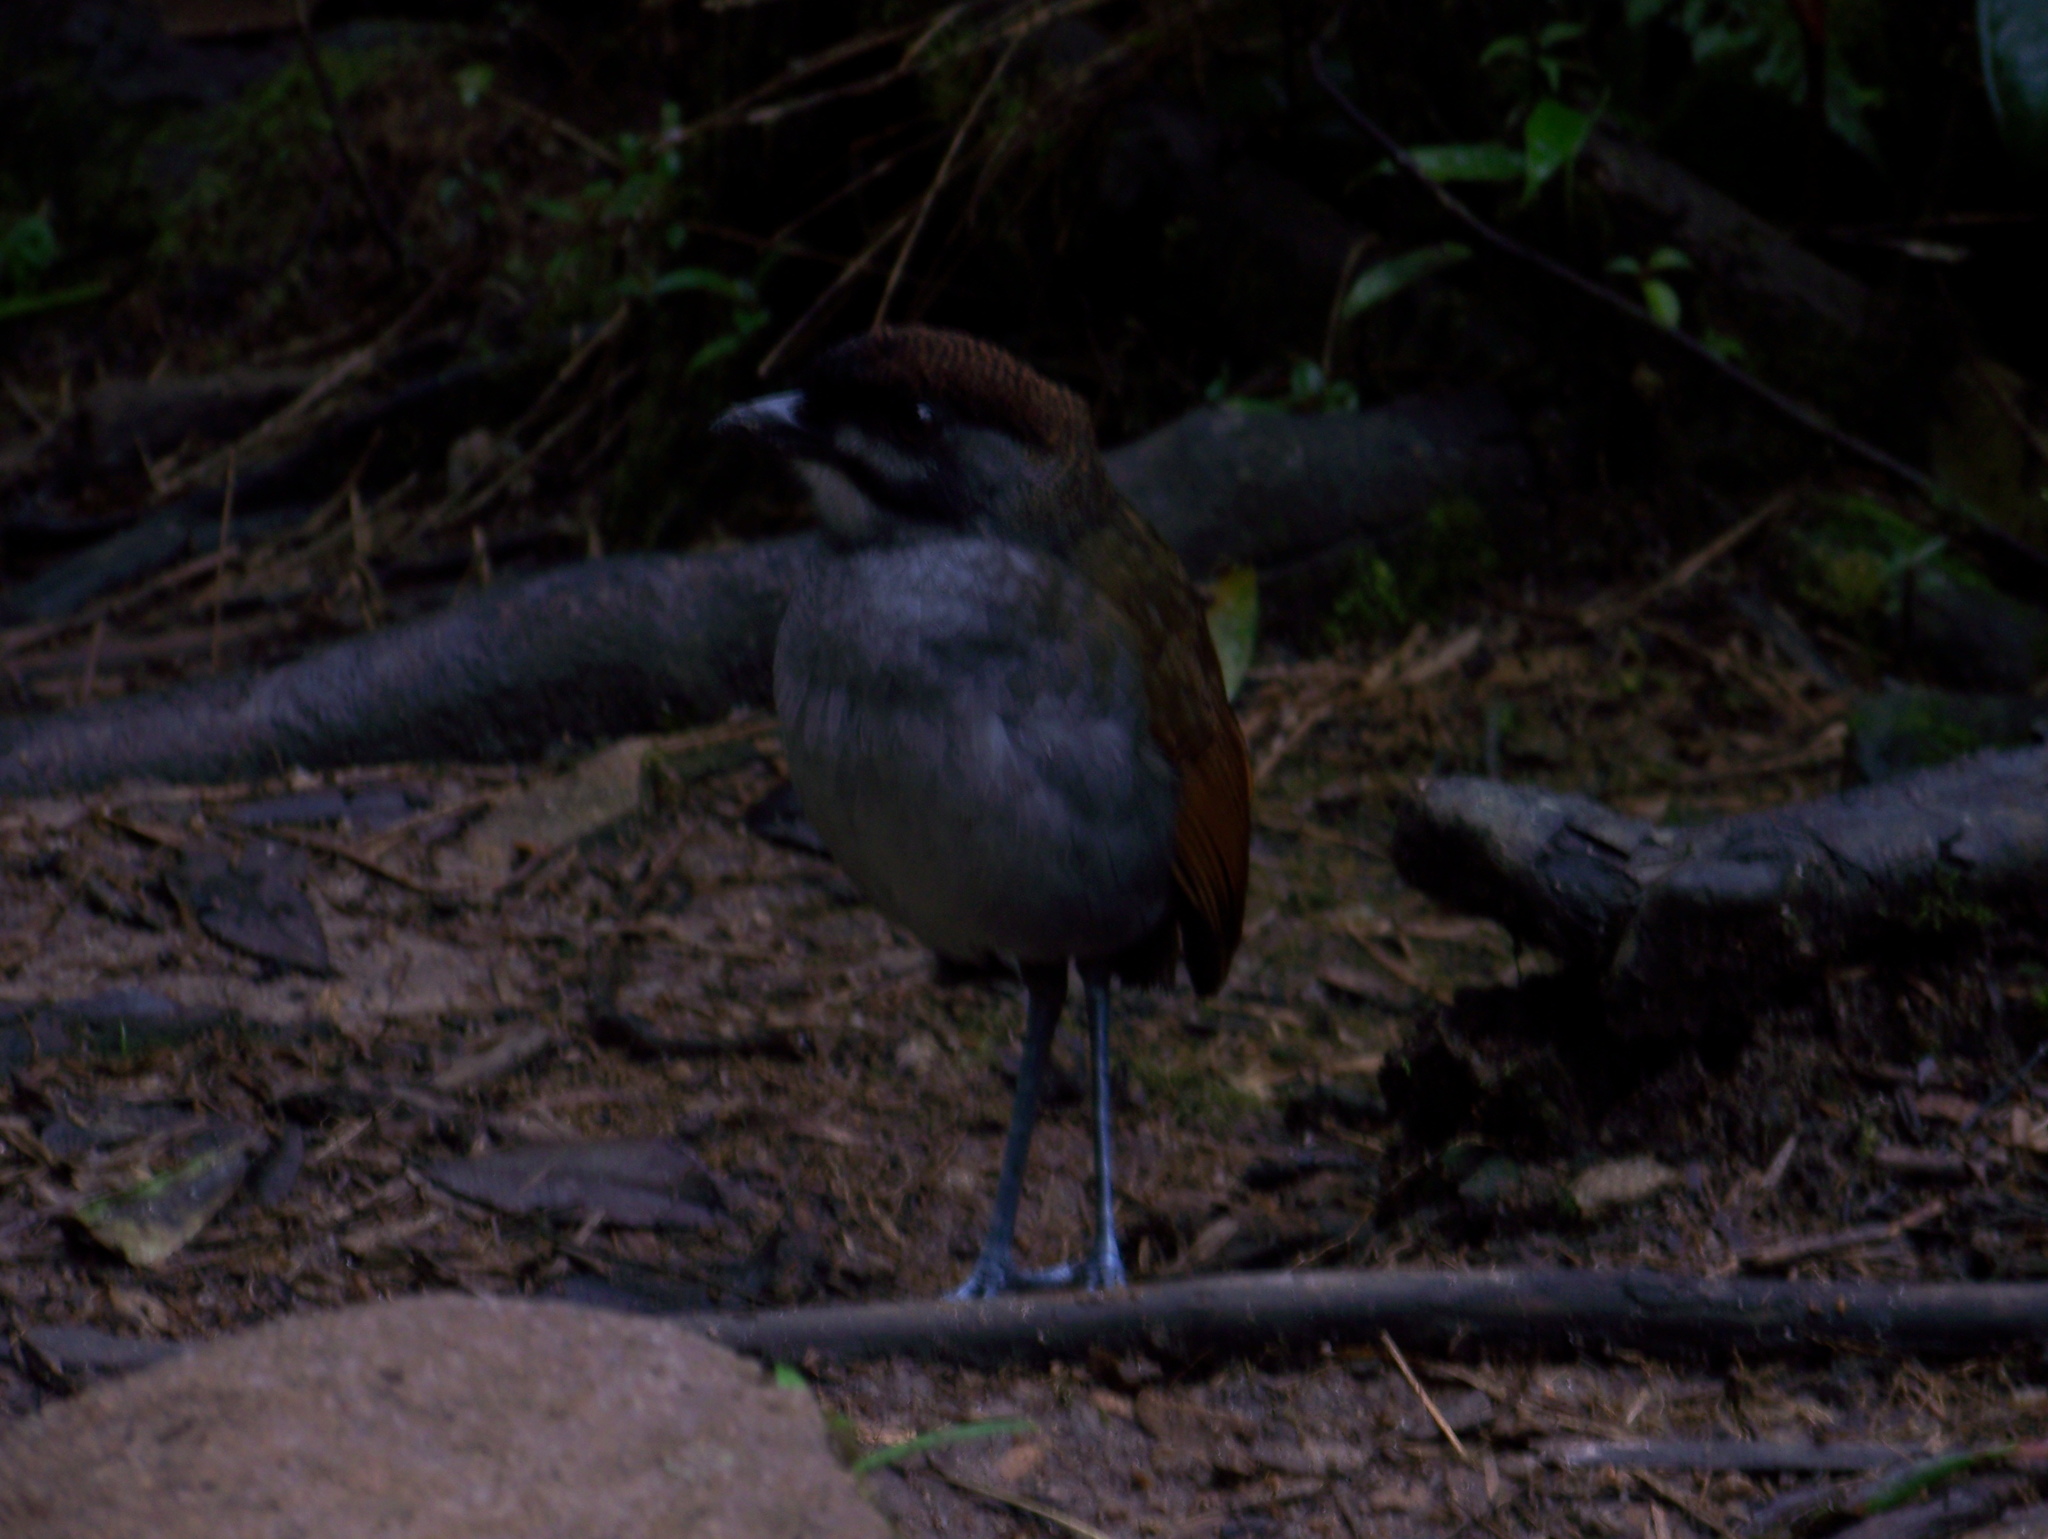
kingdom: Animalia
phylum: Chordata
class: Aves
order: Passeriformes
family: Grallariidae
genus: Grallaria
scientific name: Grallaria ridgelyi
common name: Jocotoco antpitta
